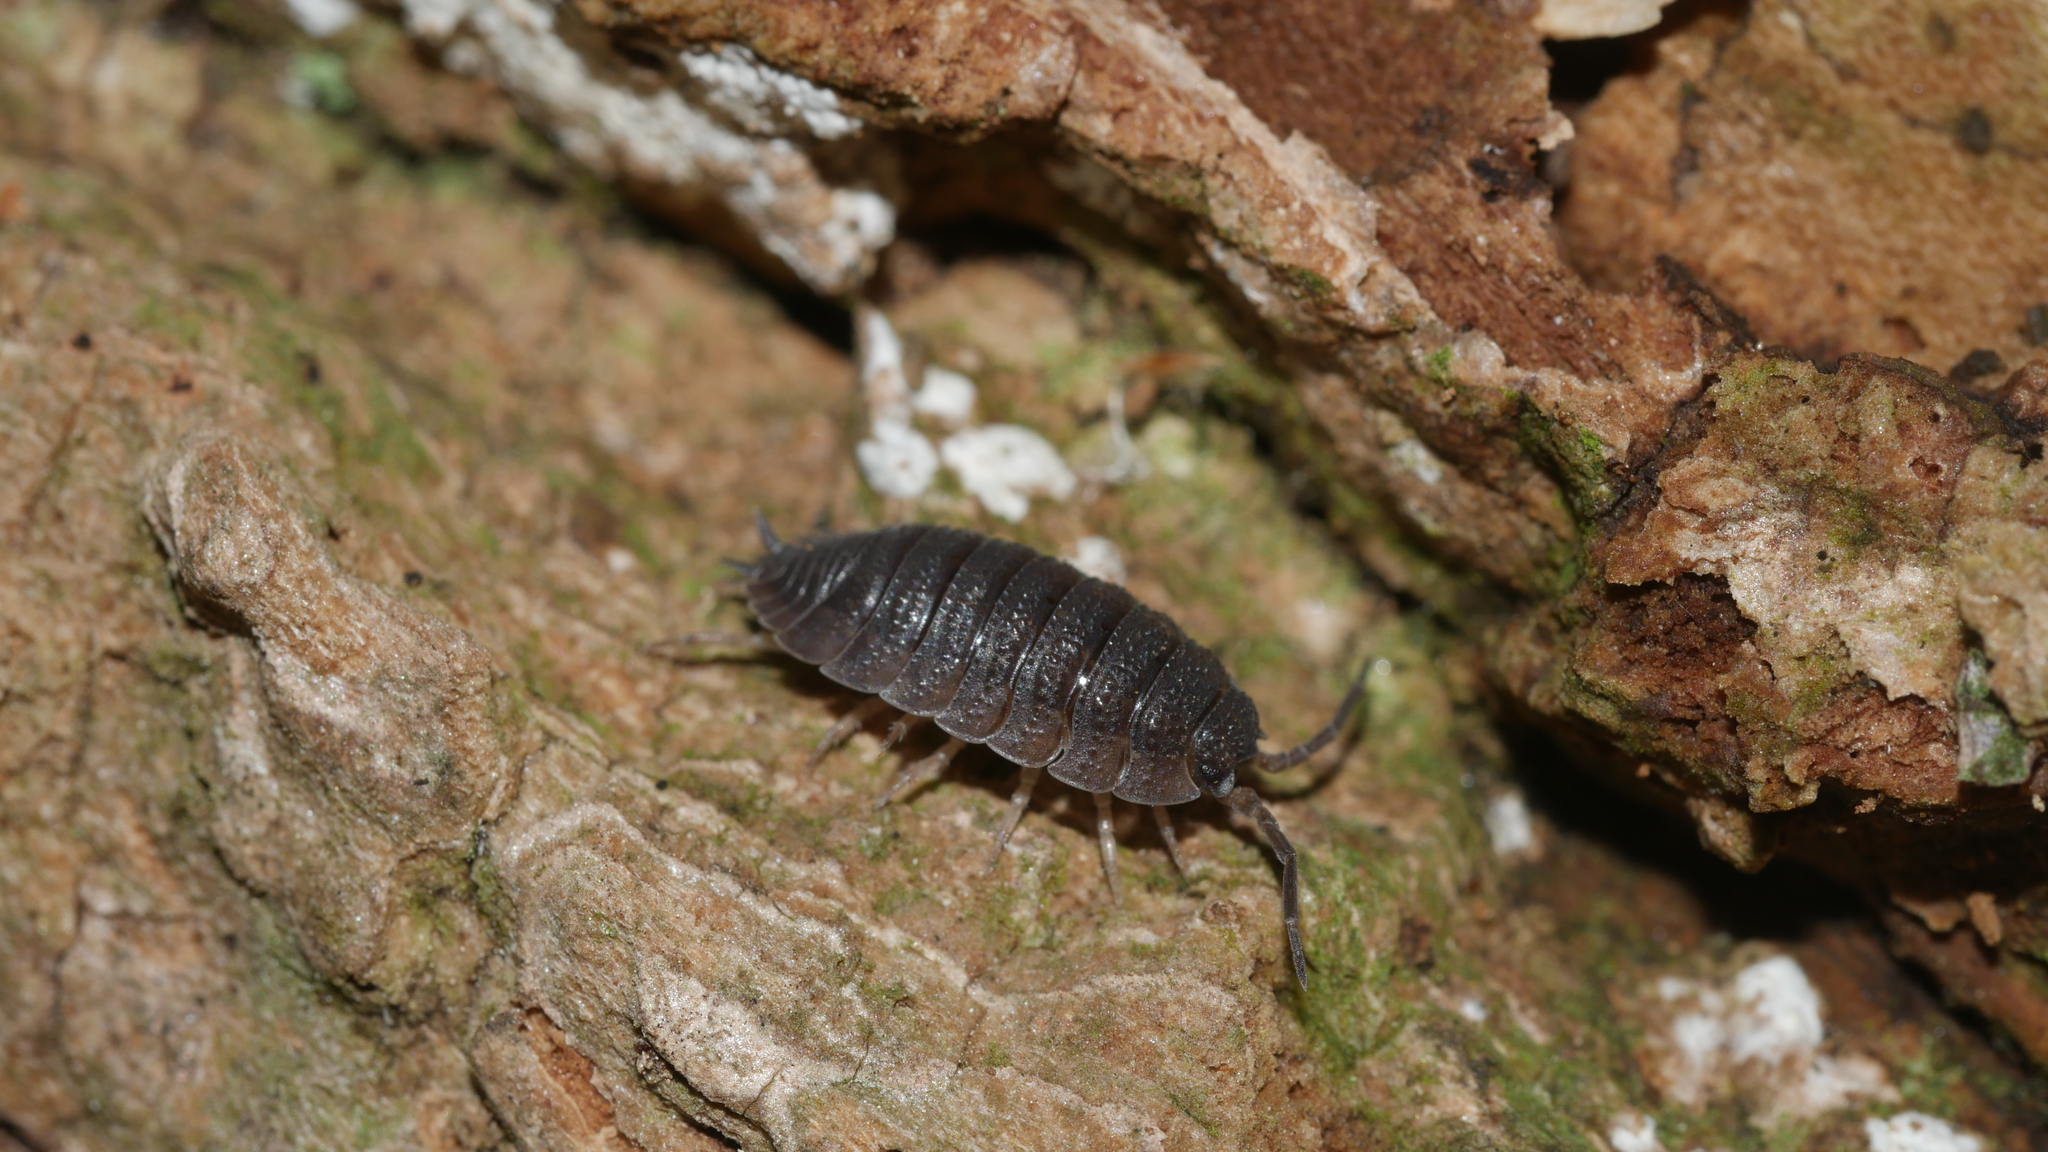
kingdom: Animalia
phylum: Arthropoda
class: Malacostraca
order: Isopoda
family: Porcellionidae
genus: Porcellio
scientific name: Porcellio scaber
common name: Common rough woodlouse
